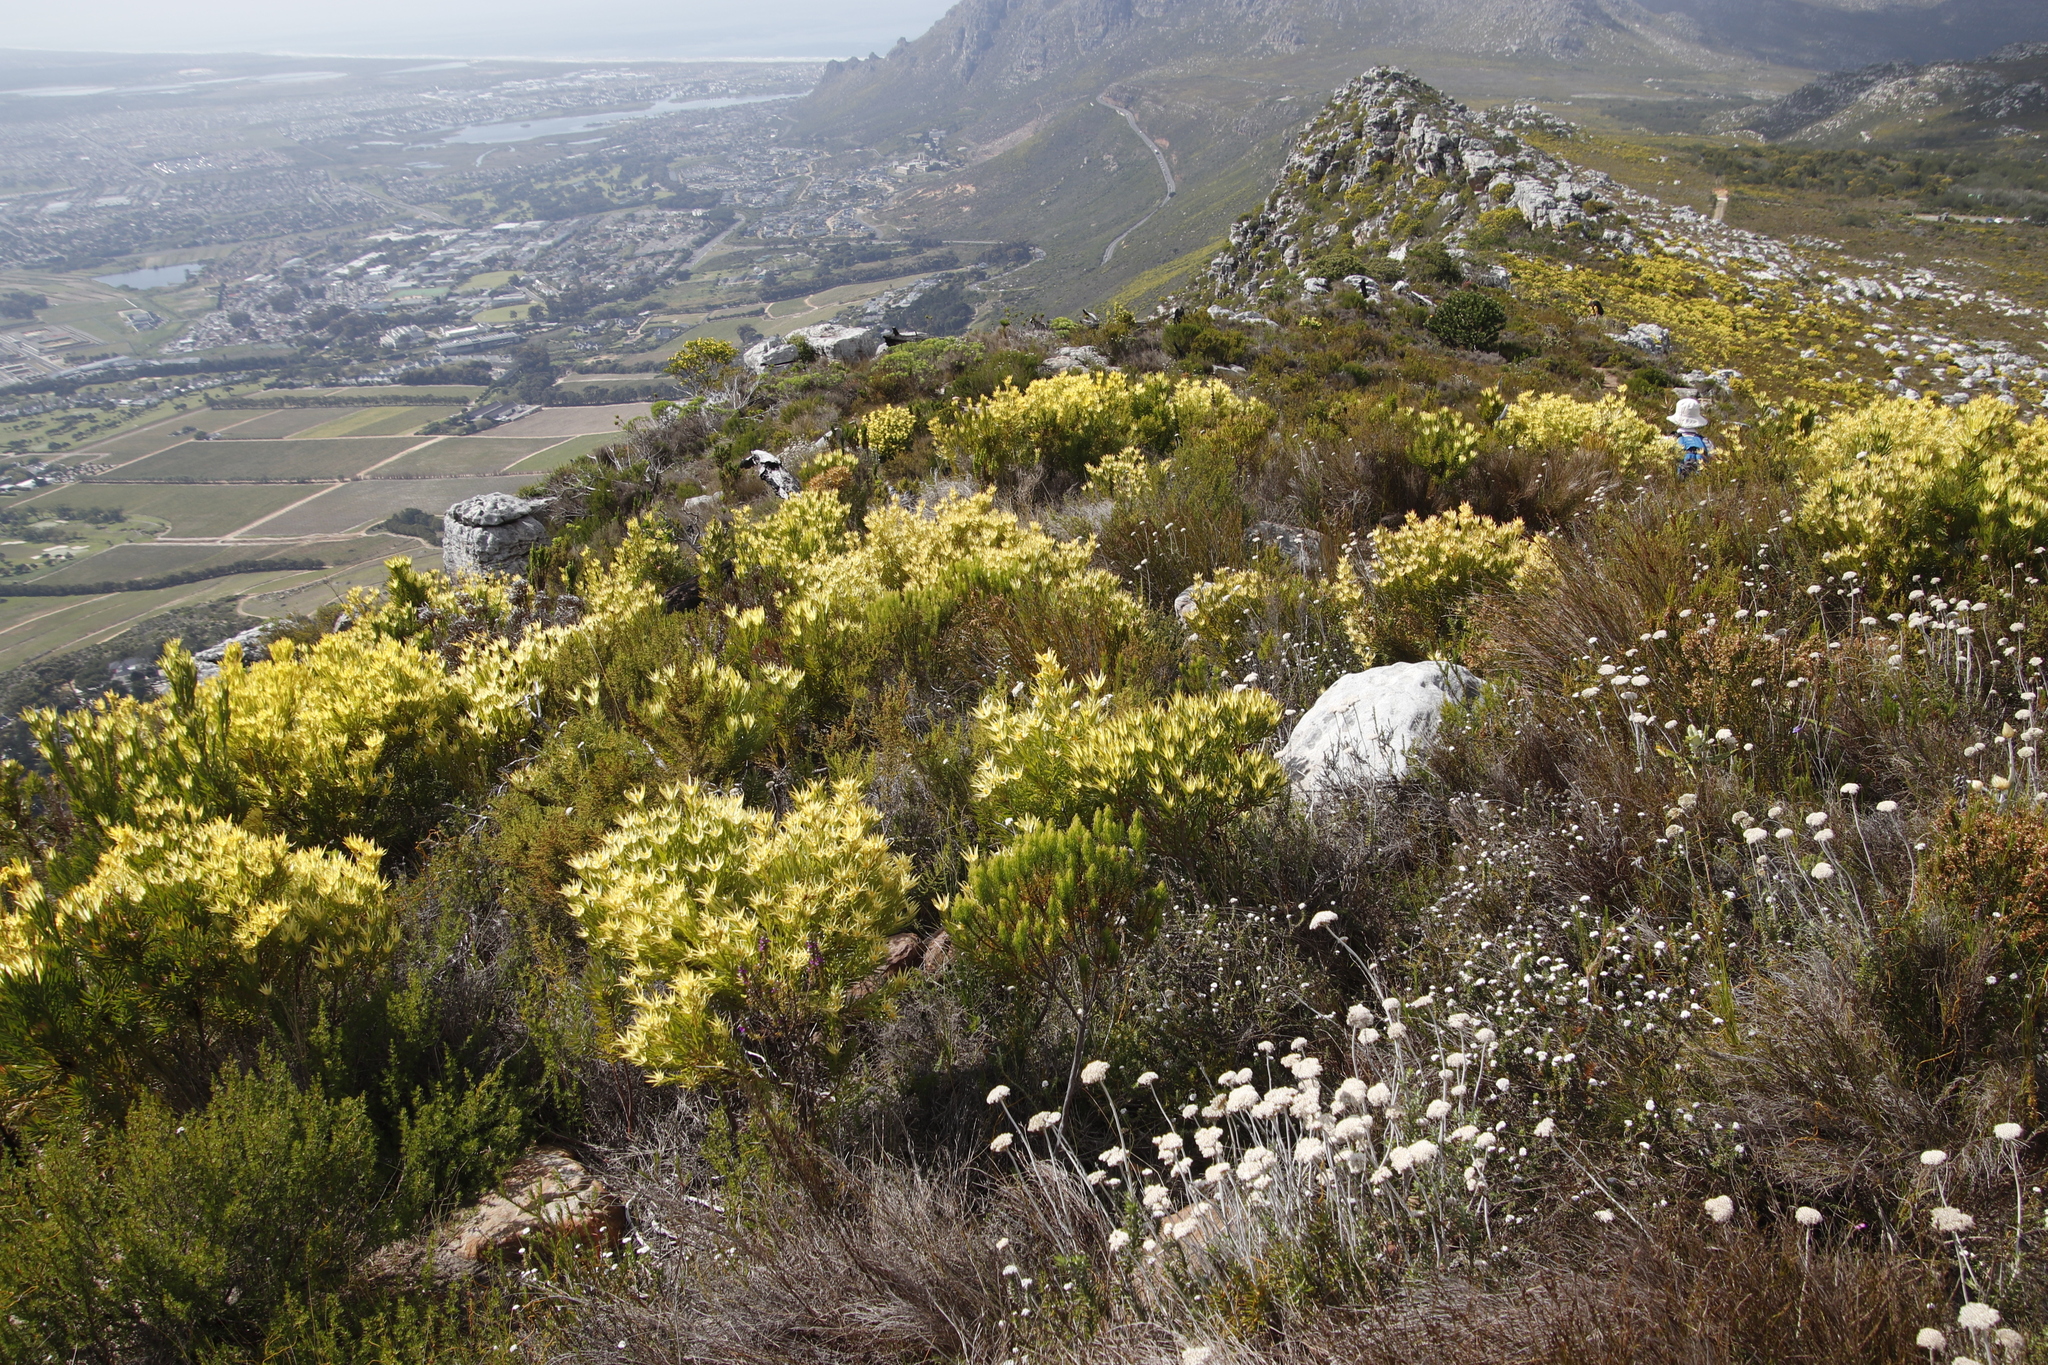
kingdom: Plantae
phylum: Tracheophyta
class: Magnoliopsida
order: Proteales
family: Proteaceae
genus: Leucadendron
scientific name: Leucadendron xanthoconus
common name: Sickle-leaf conebush
